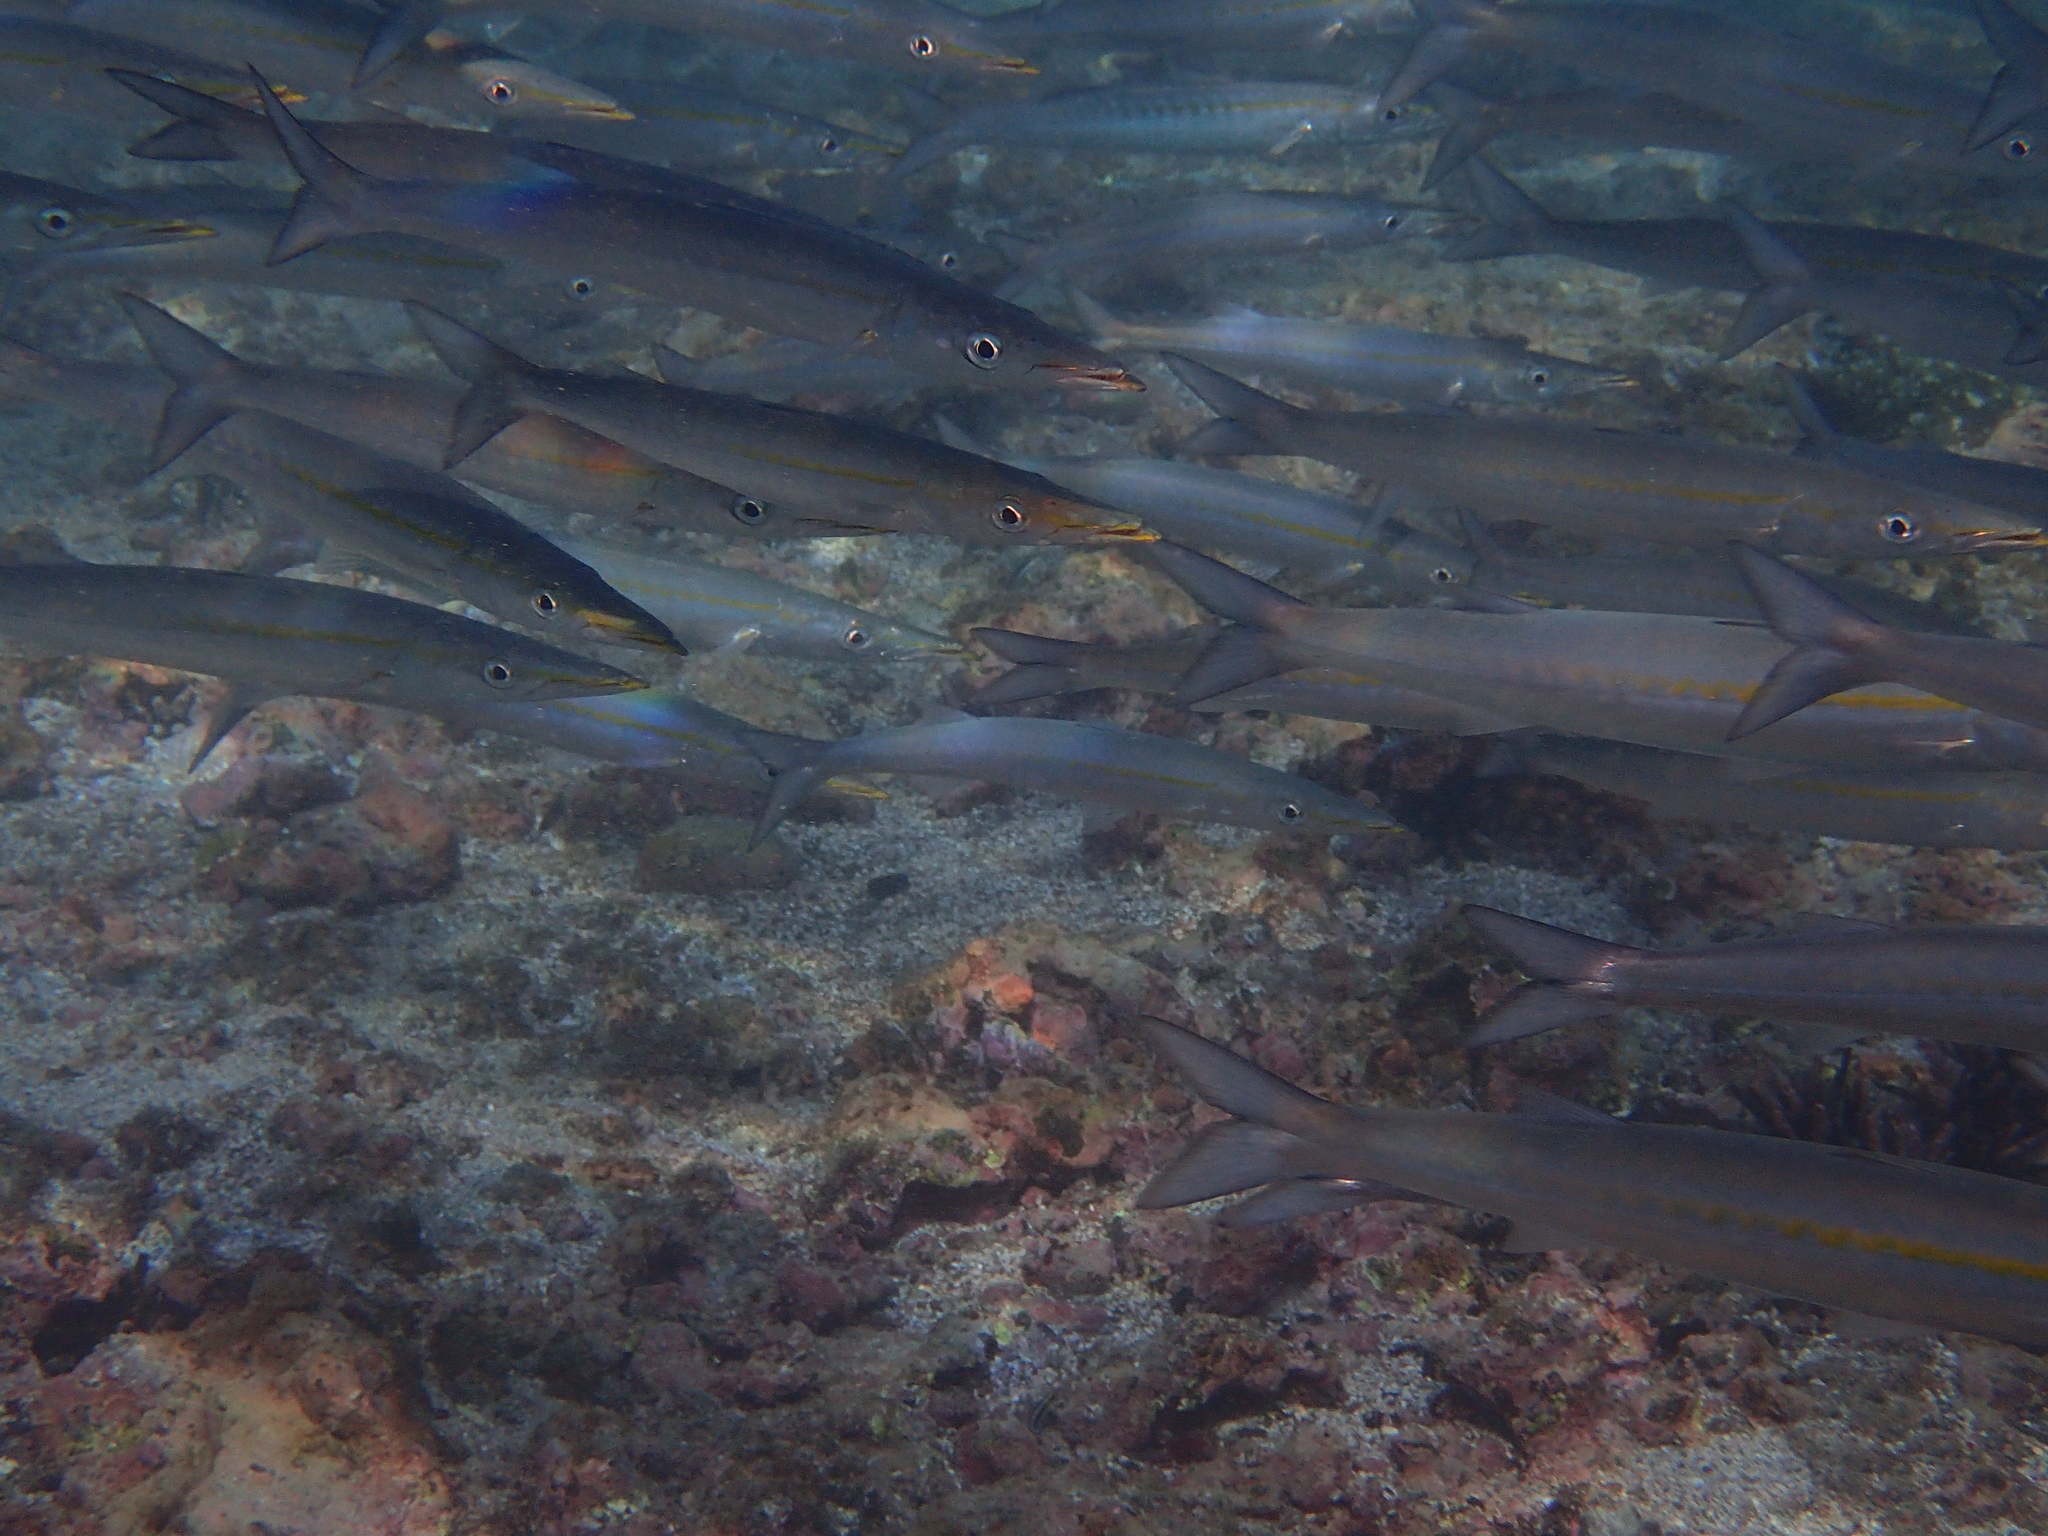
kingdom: Animalia
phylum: Chordata
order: Perciformes
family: Sphyraenidae
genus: Sphyraena
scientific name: Sphyraena idiastes
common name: Pelican barracuda
